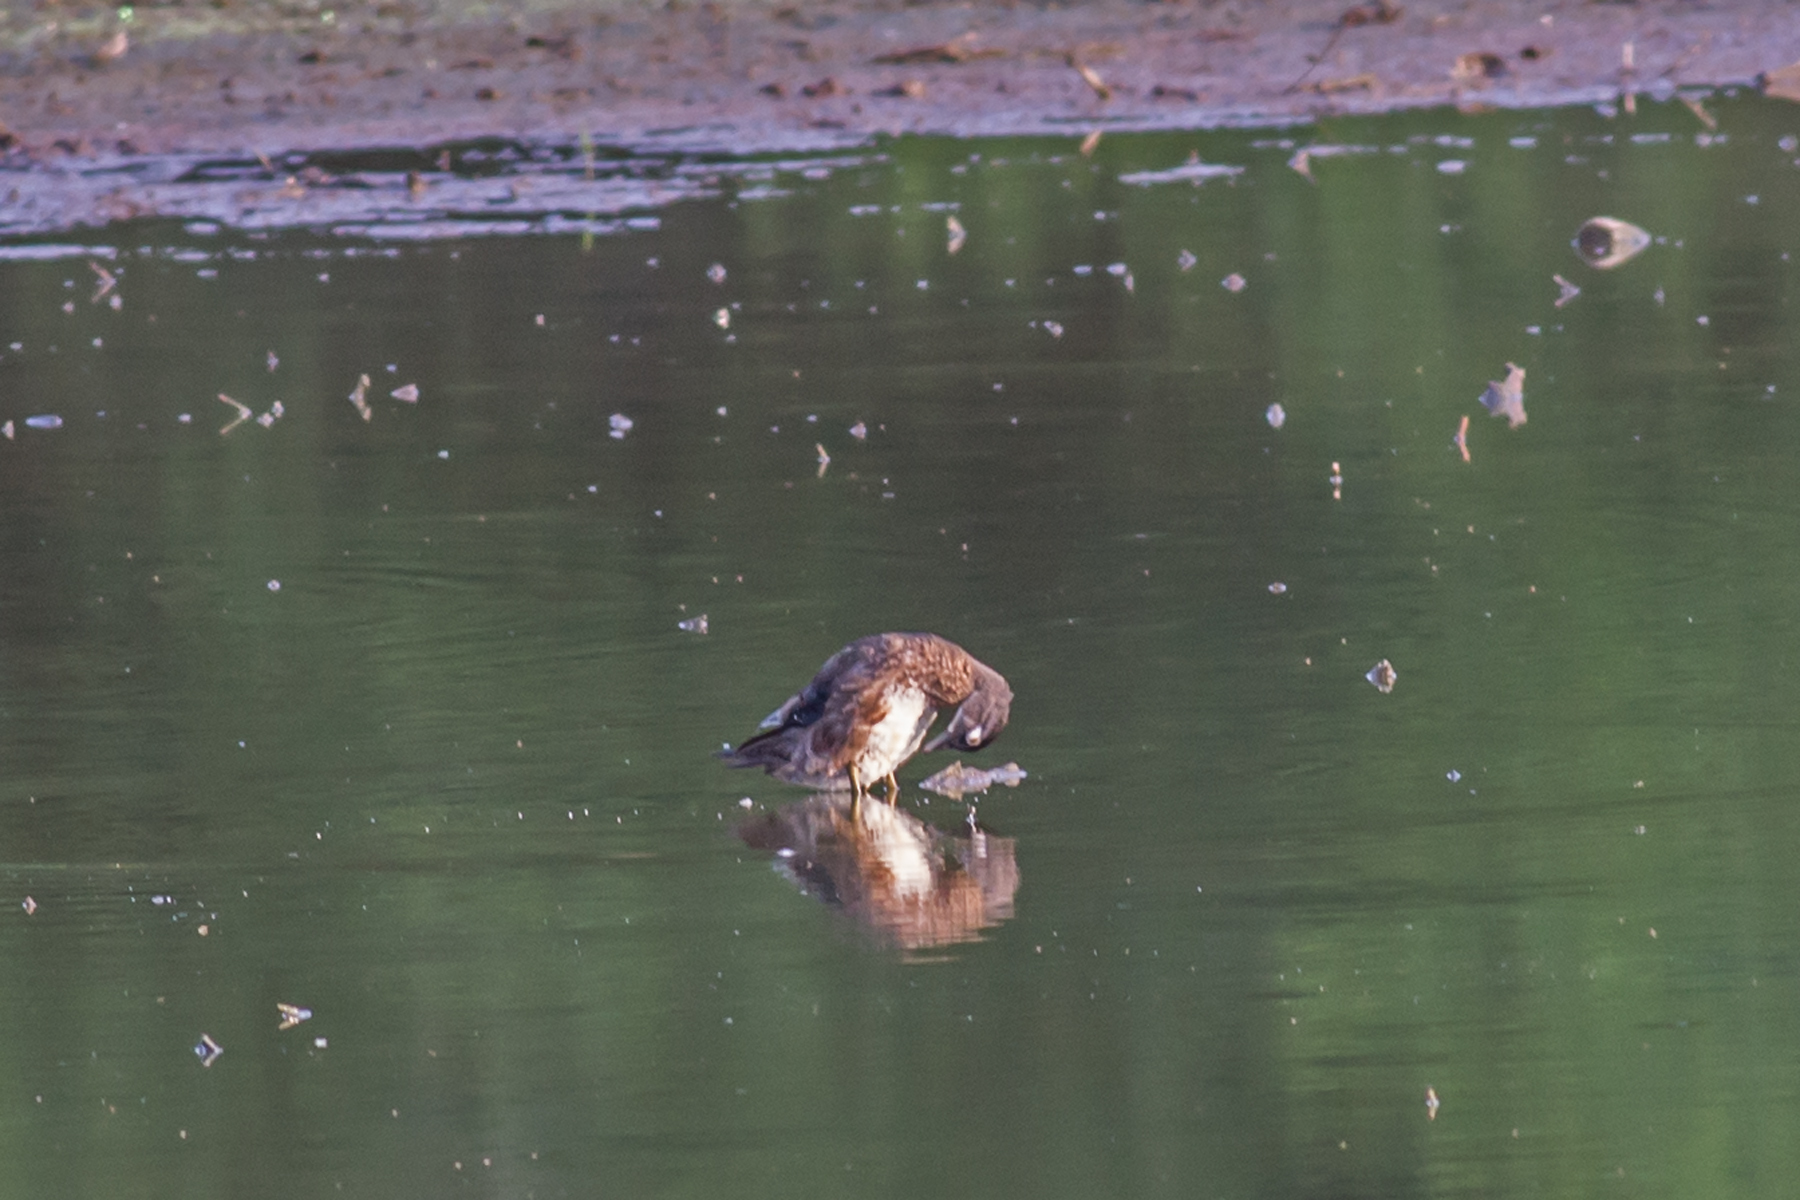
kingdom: Animalia
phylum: Chordata
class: Aves
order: Anseriformes
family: Anatidae
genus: Aix
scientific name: Aix sponsa
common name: Wood duck
